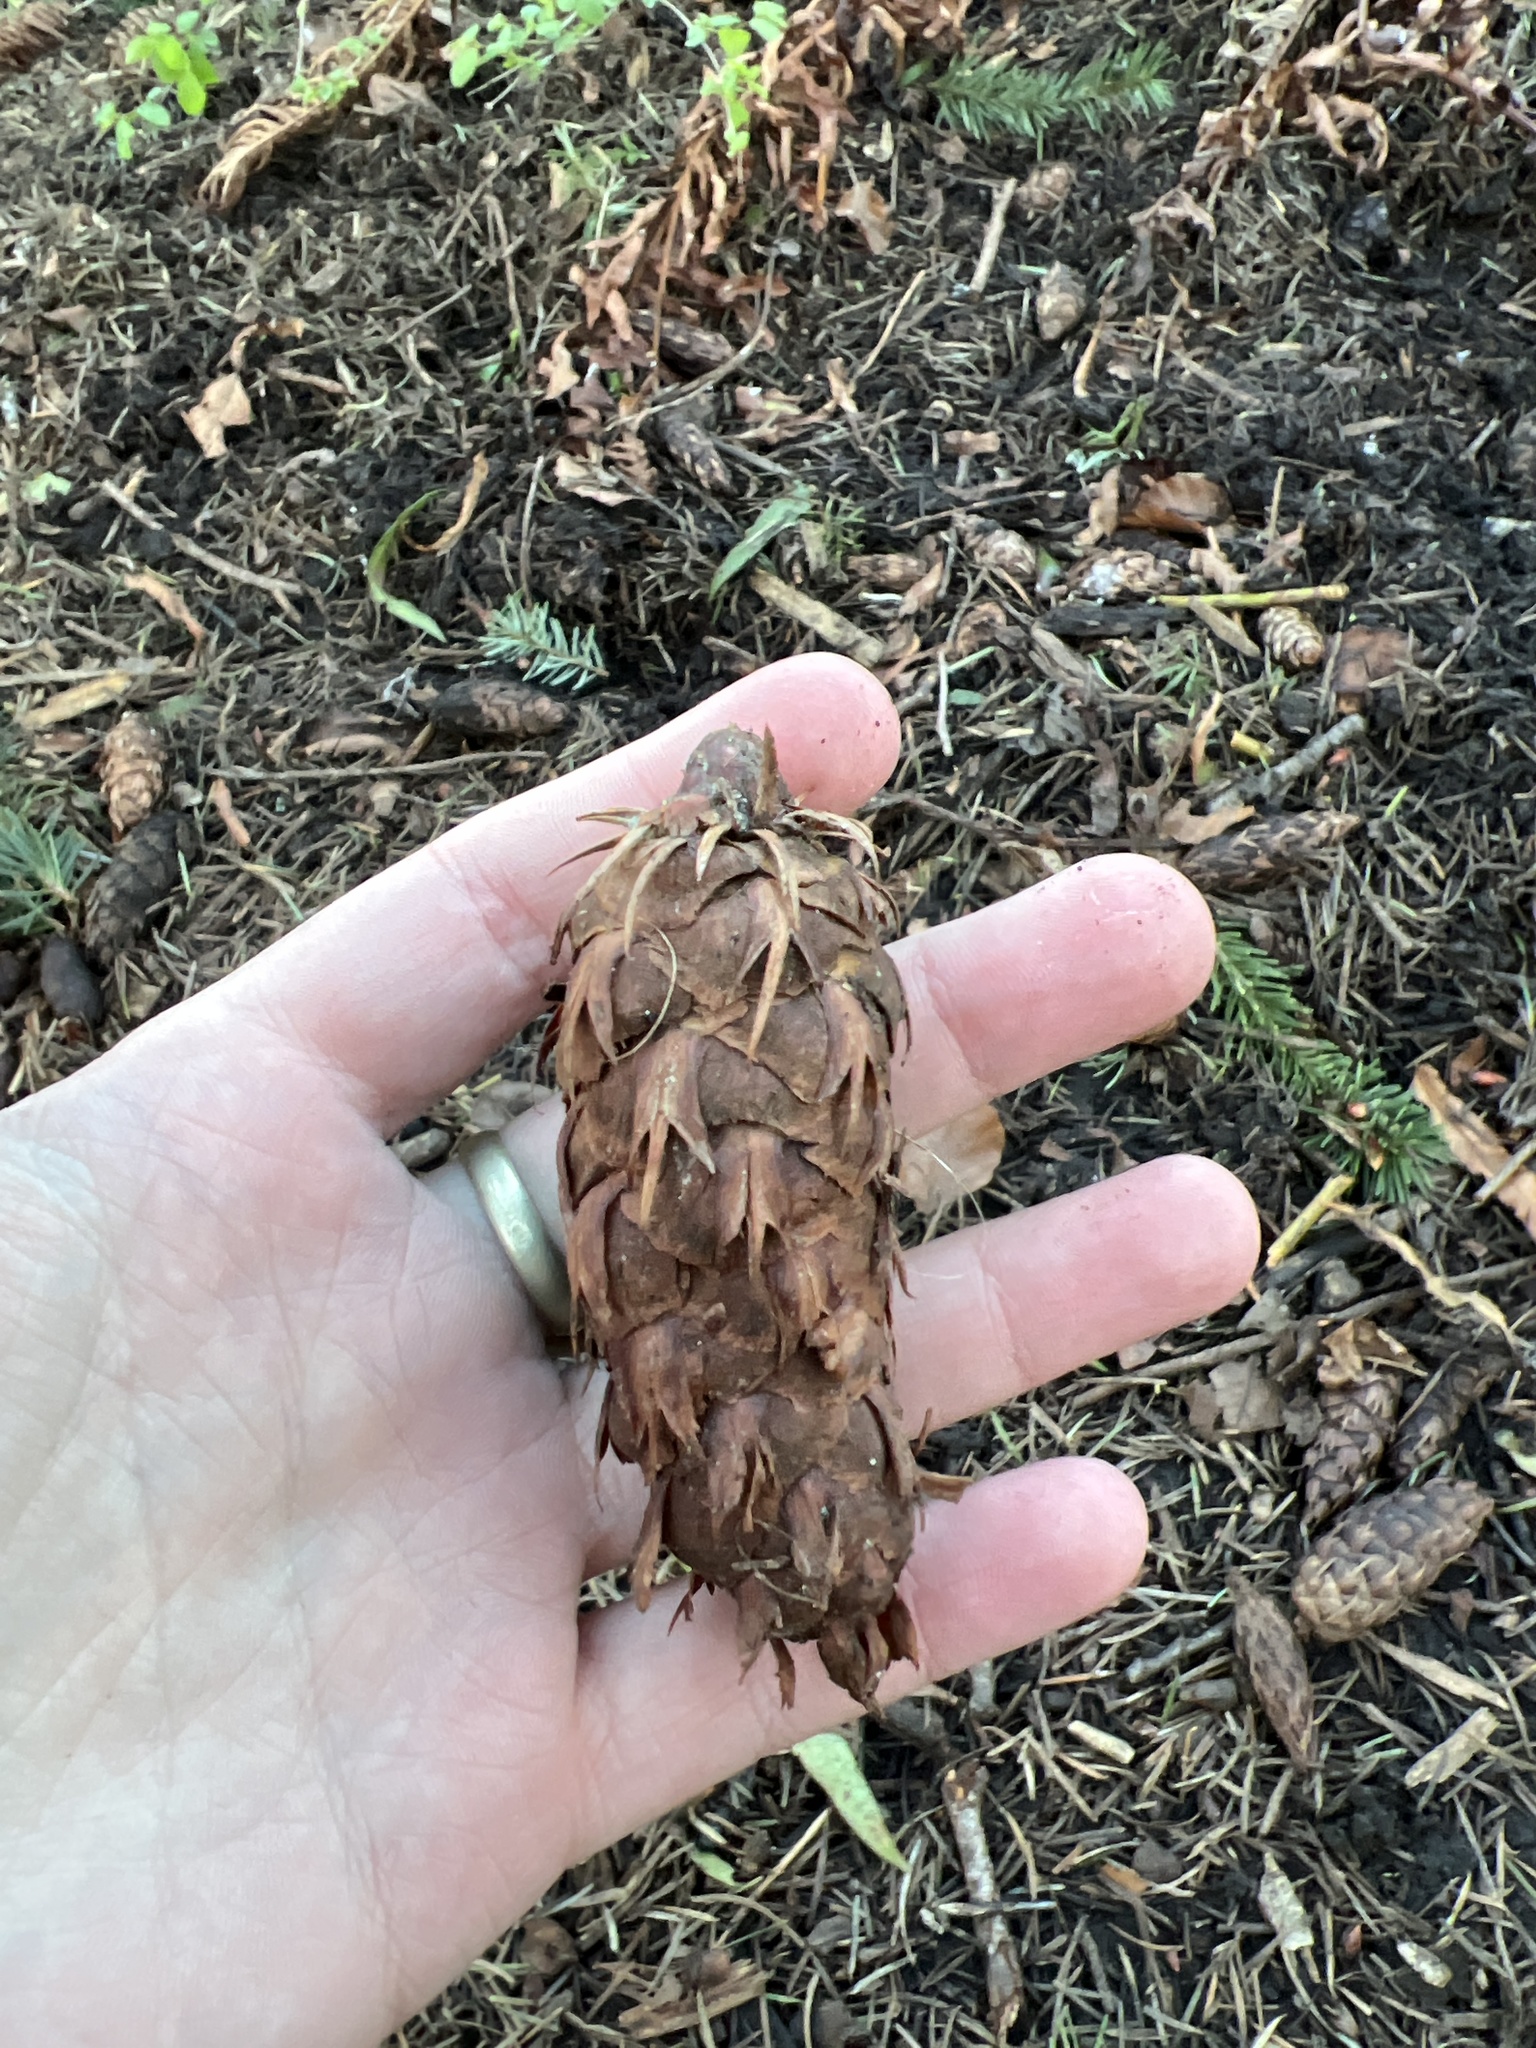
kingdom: Plantae
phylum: Tracheophyta
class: Pinopsida
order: Pinales
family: Pinaceae
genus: Pseudotsuga
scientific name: Pseudotsuga menziesii
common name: Douglas fir
